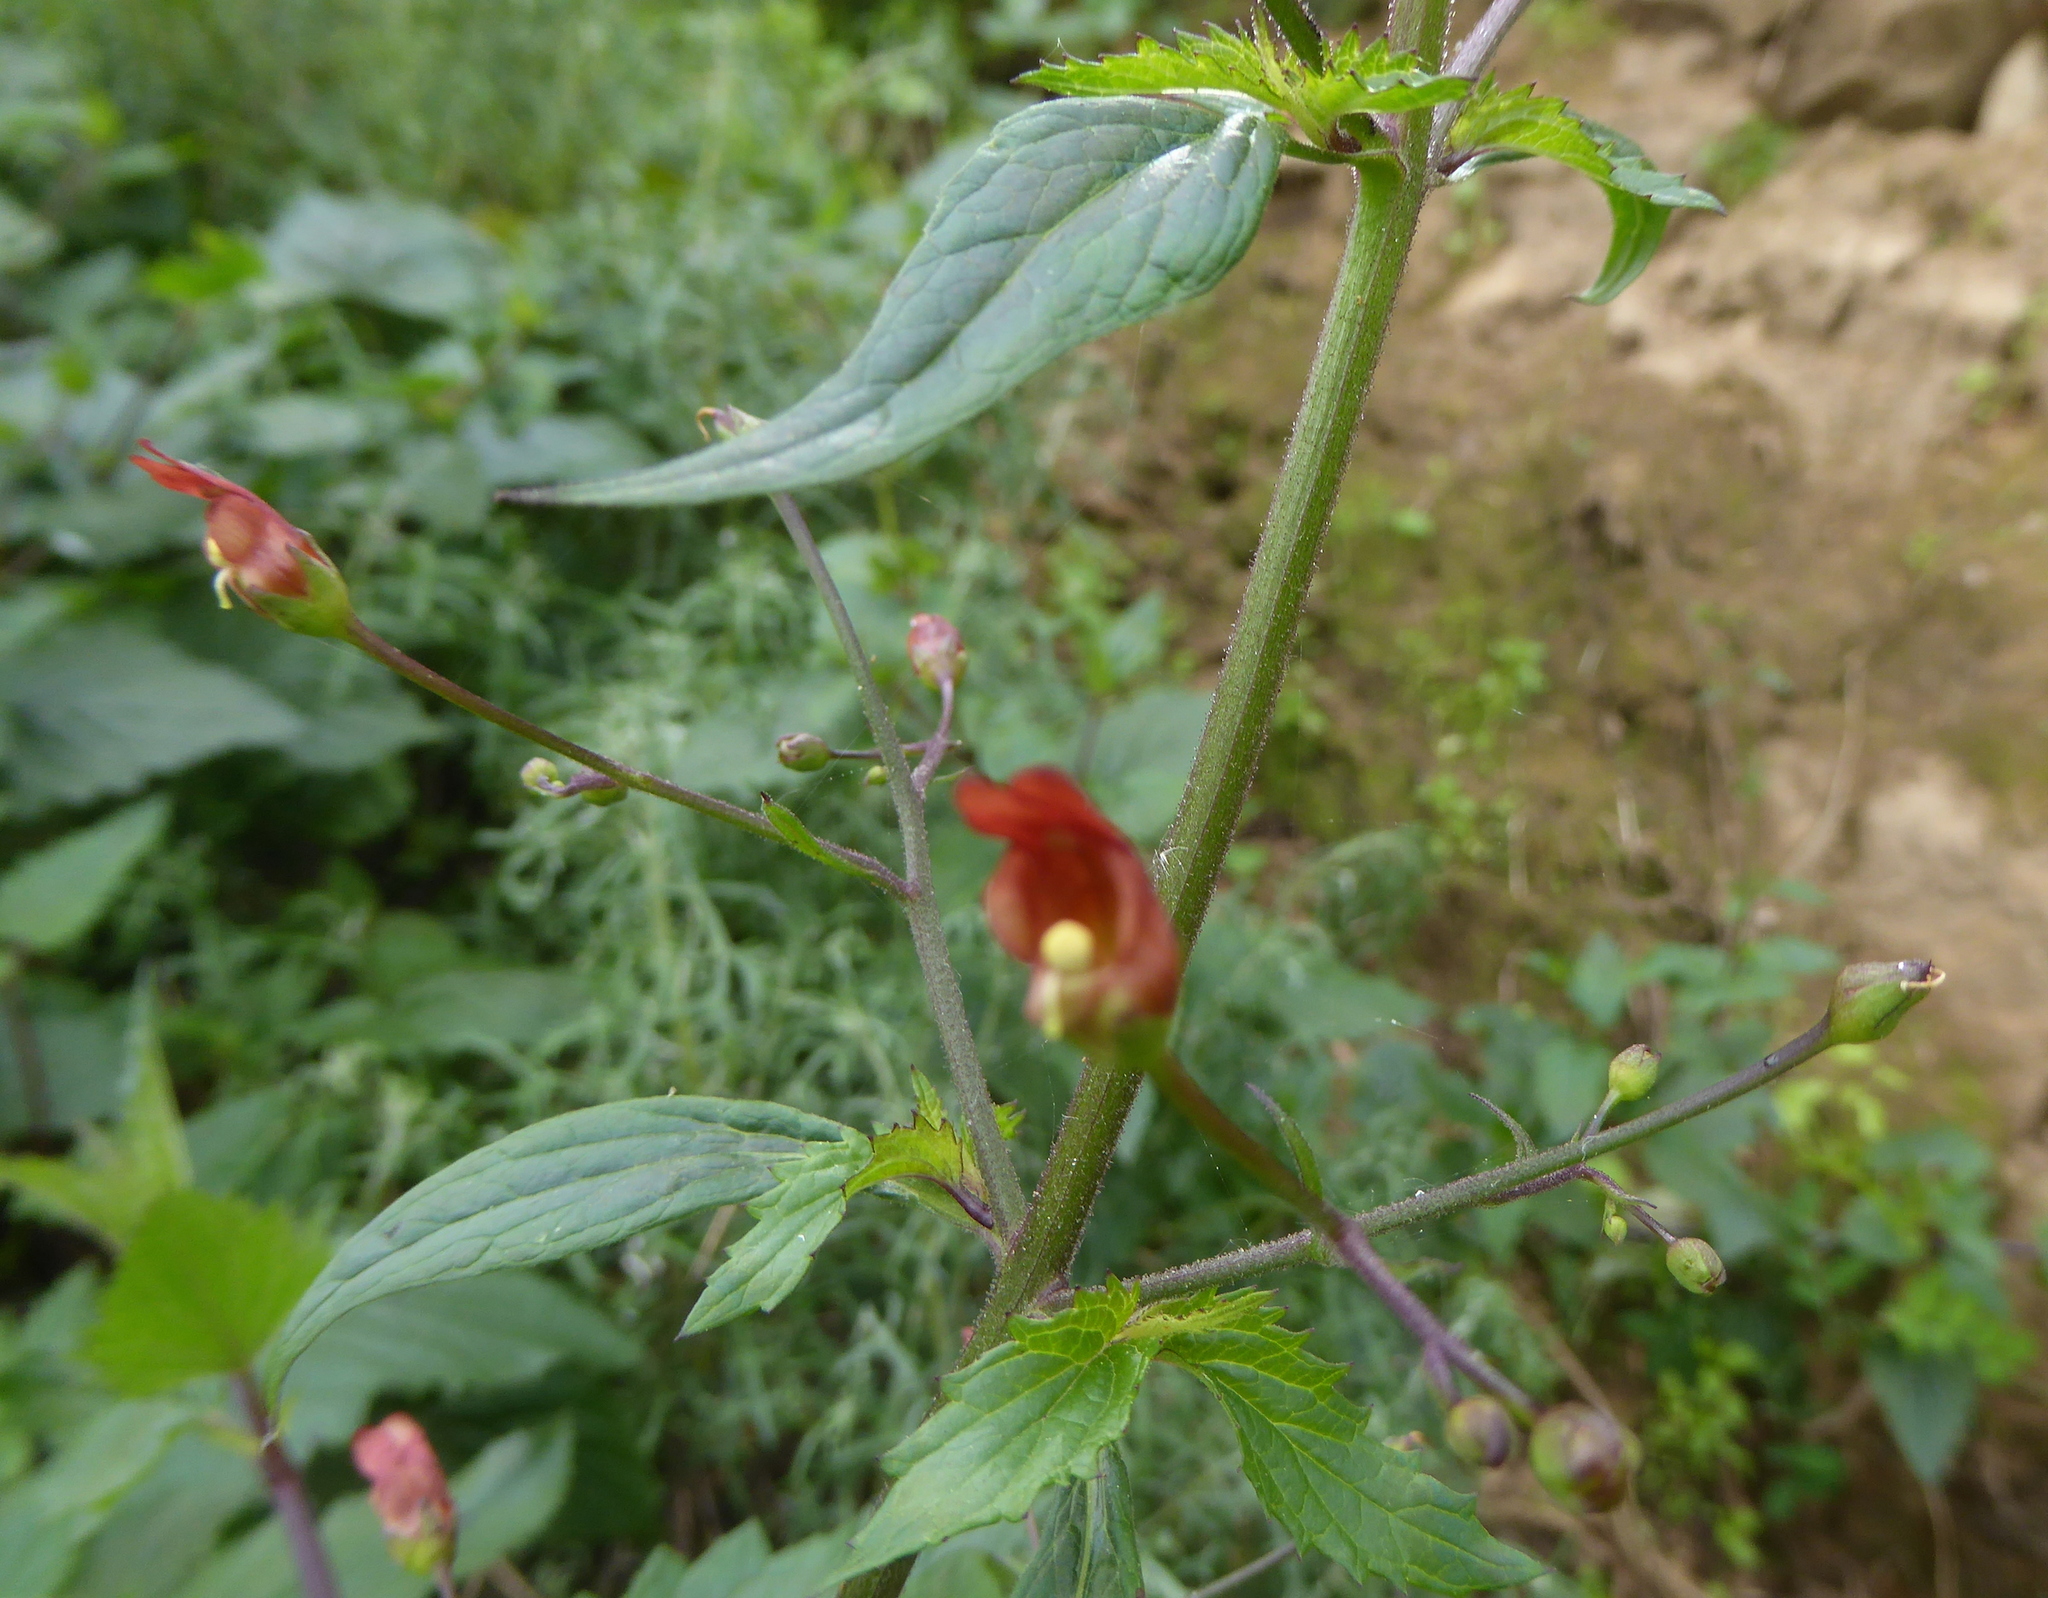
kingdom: Plantae
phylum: Tracheophyta
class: Magnoliopsida
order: Lamiales
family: Scrophulariaceae
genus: Scrophularia
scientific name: Scrophularia californica
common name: California figwort
